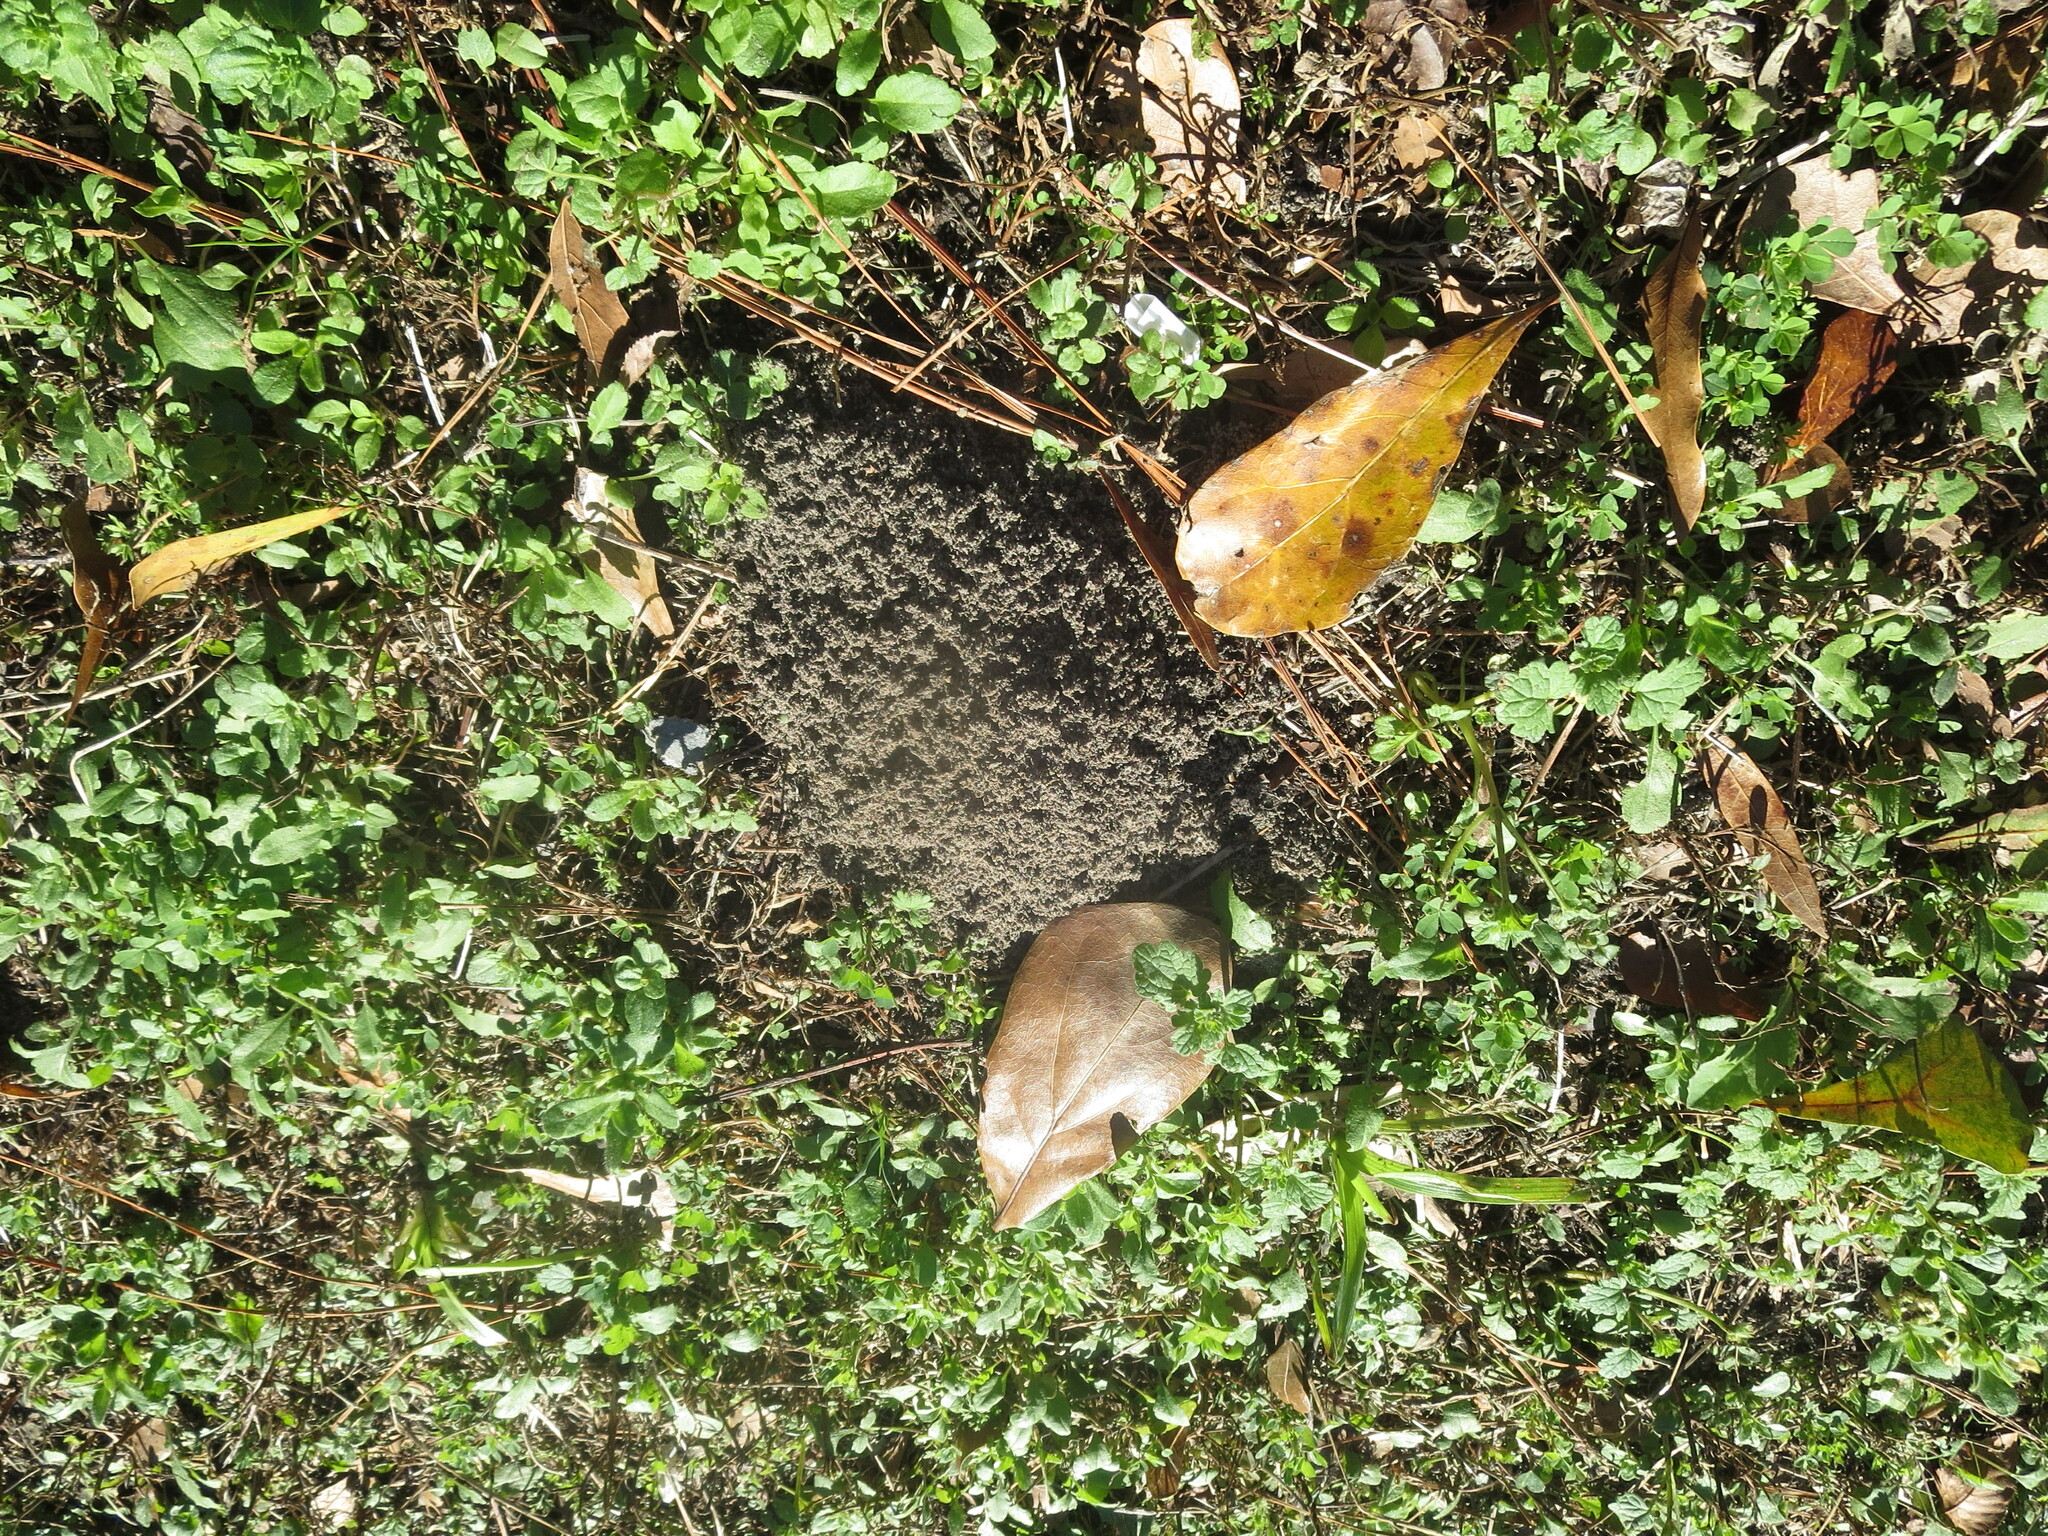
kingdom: Animalia
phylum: Arthropoda
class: Insecta
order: Hymenoptera
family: Formicidae
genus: Solenopsis
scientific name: Solenopsis invicta
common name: Red imported fire ant
